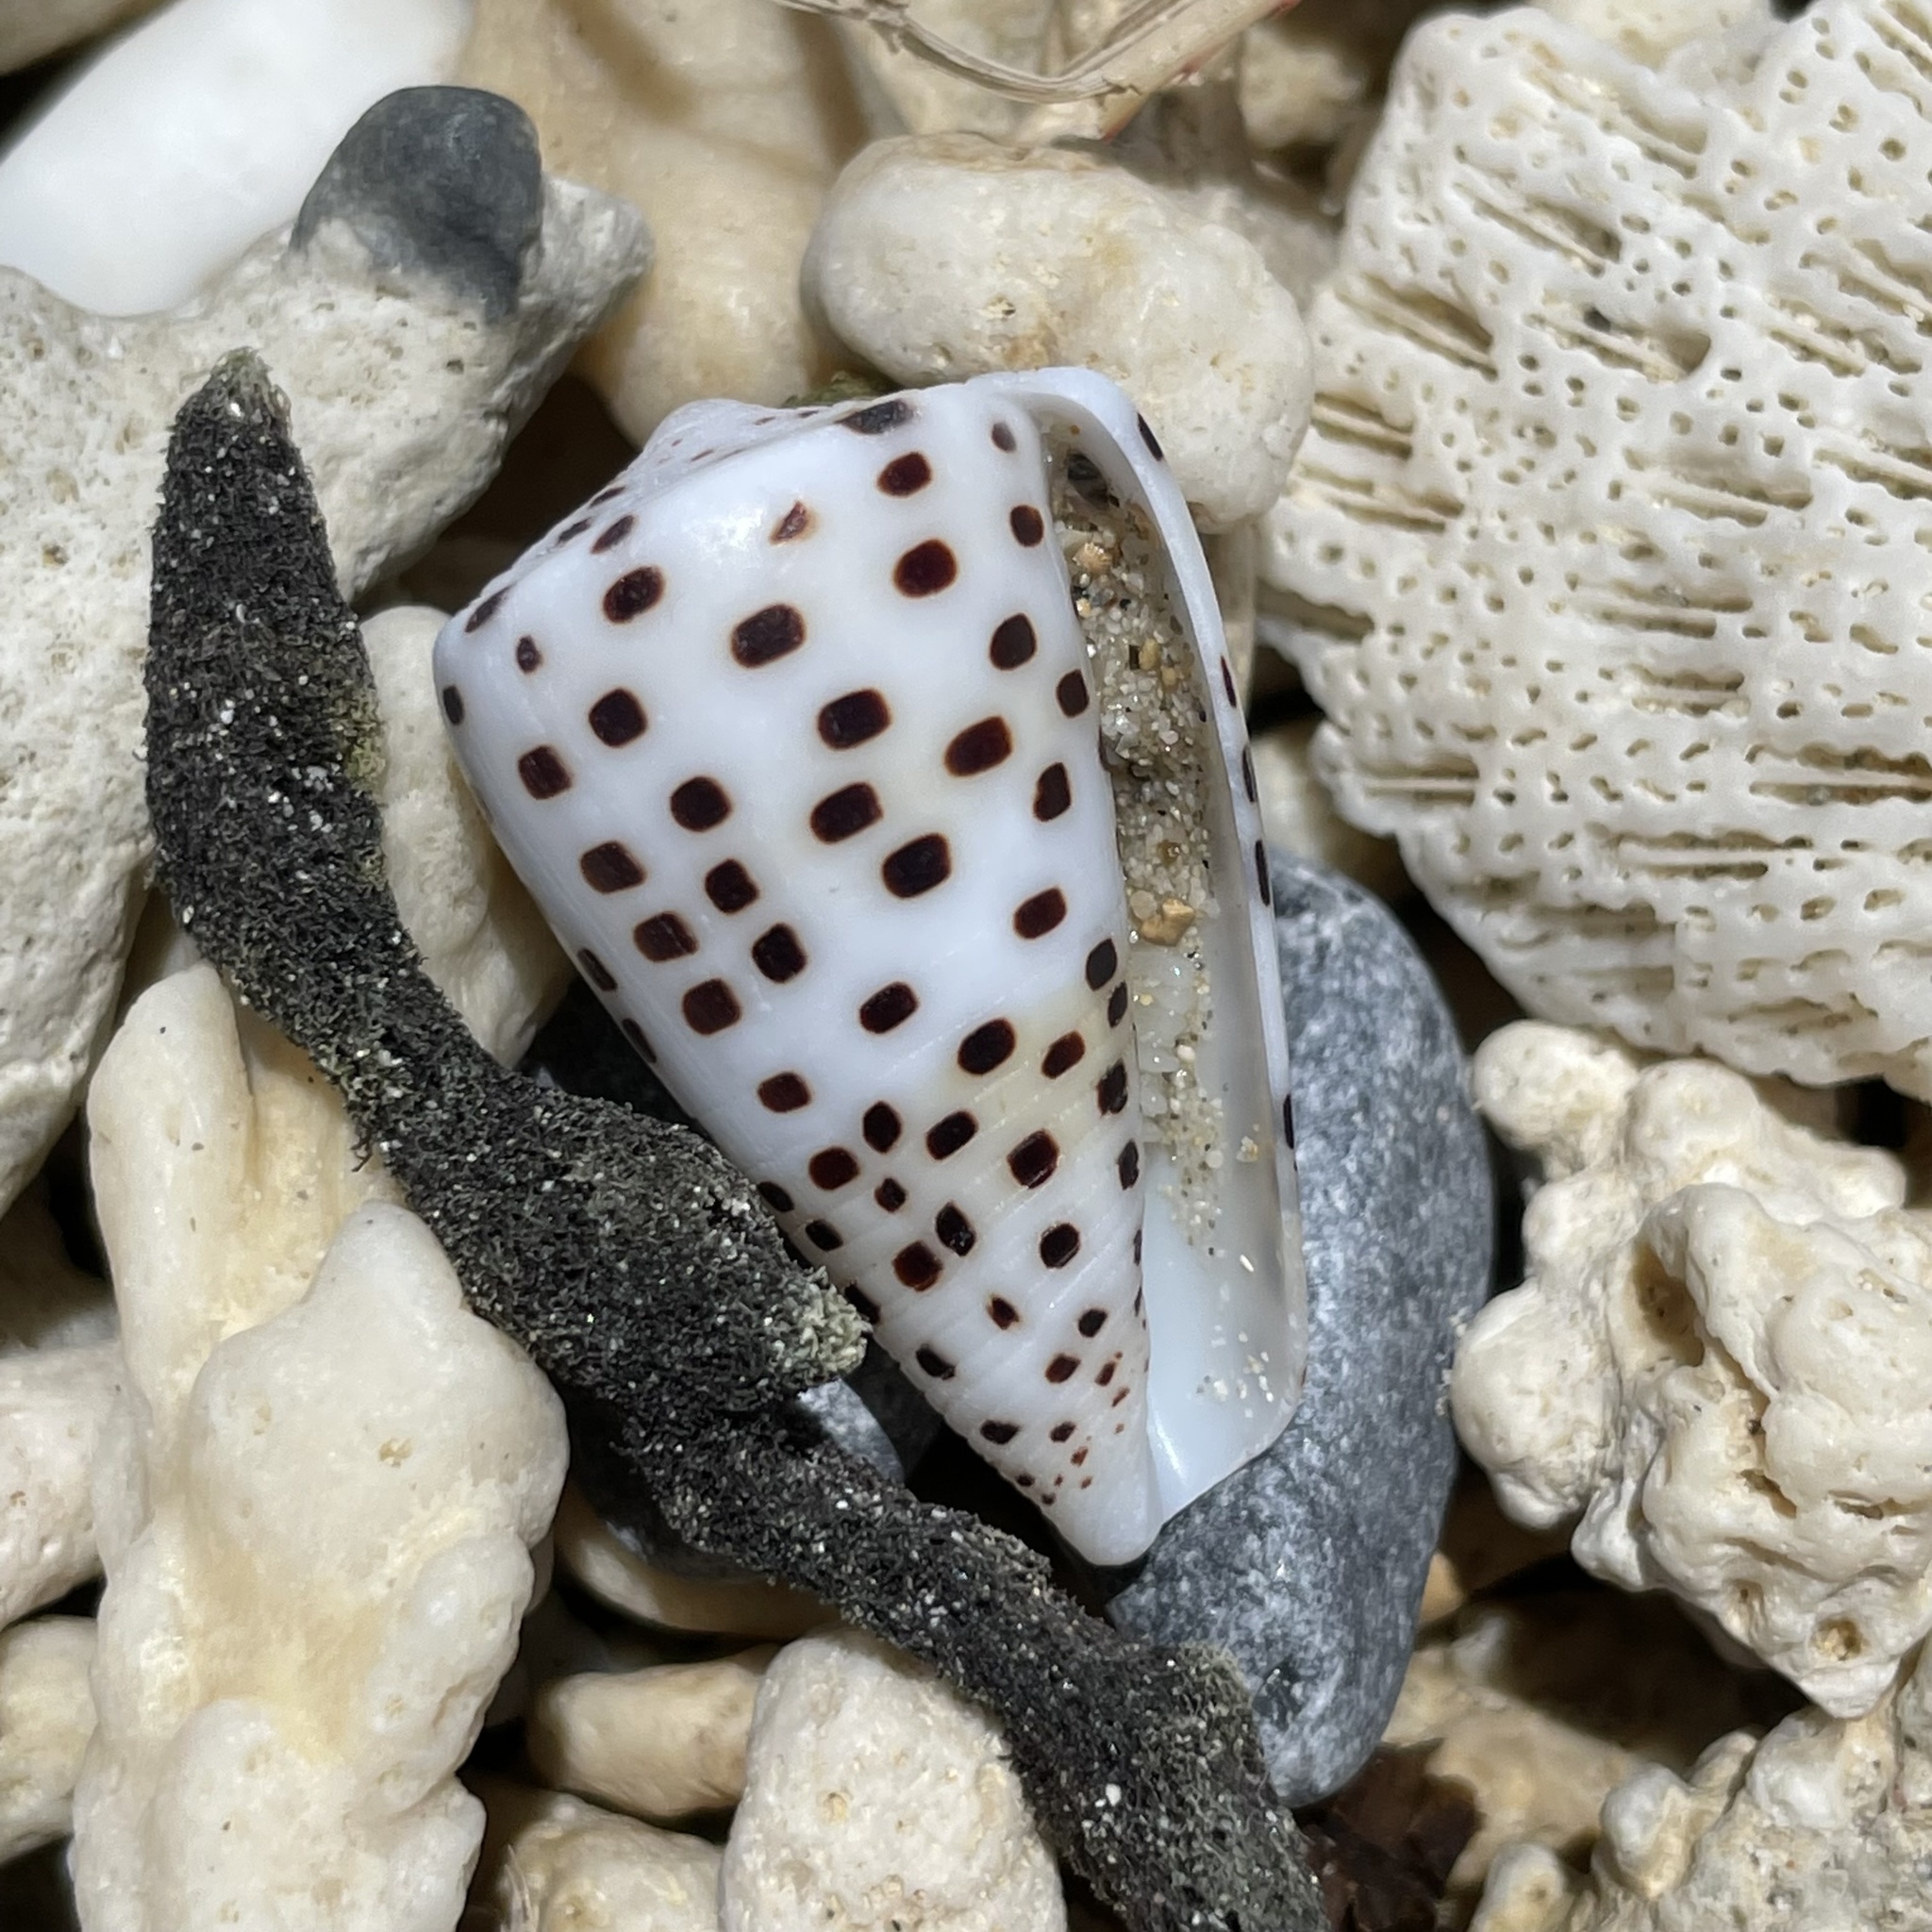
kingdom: Animalia
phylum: Mollusca
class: Gastropoda
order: Neogastropoda
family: Conidae
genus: Conus
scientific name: Conus eburneus
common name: Ivory cone
